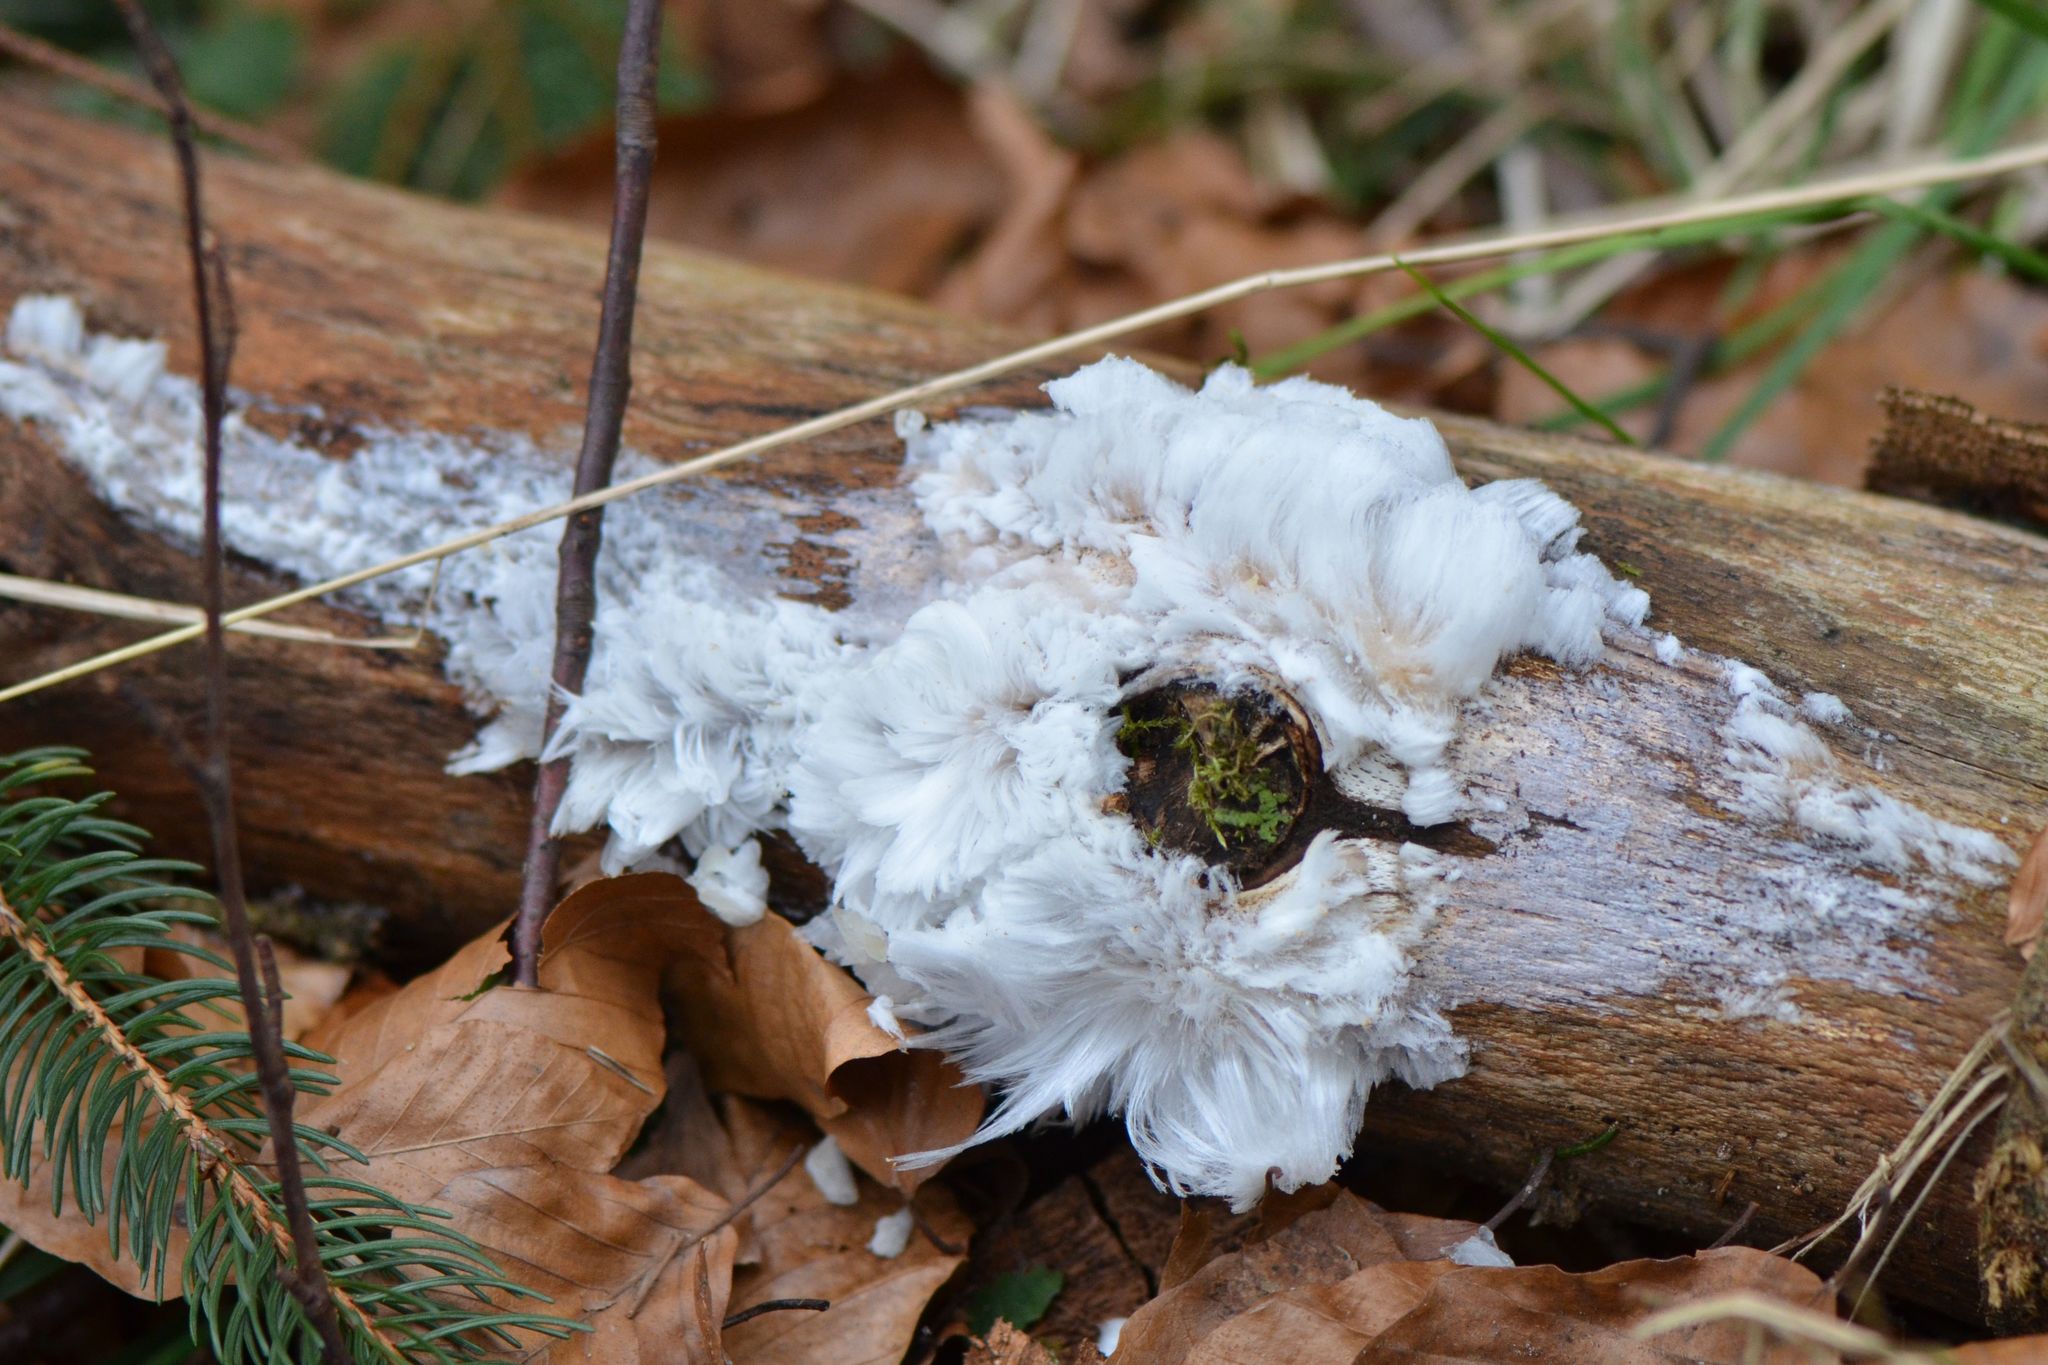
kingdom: Fungi
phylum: Basidiomycota
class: Agaricomycetes
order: Auriculariales
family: Auriculariaceae
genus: Exidiopsis
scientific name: Exidiopsis effusa
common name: Hair ice crust
